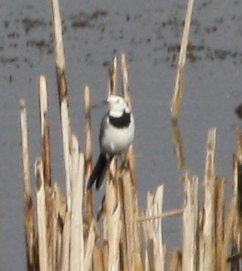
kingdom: Animalia
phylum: Chordata
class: Aves
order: Passeriformes
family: Motacillidae
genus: Motacilla
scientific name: Motacilla alba
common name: White wagtail
